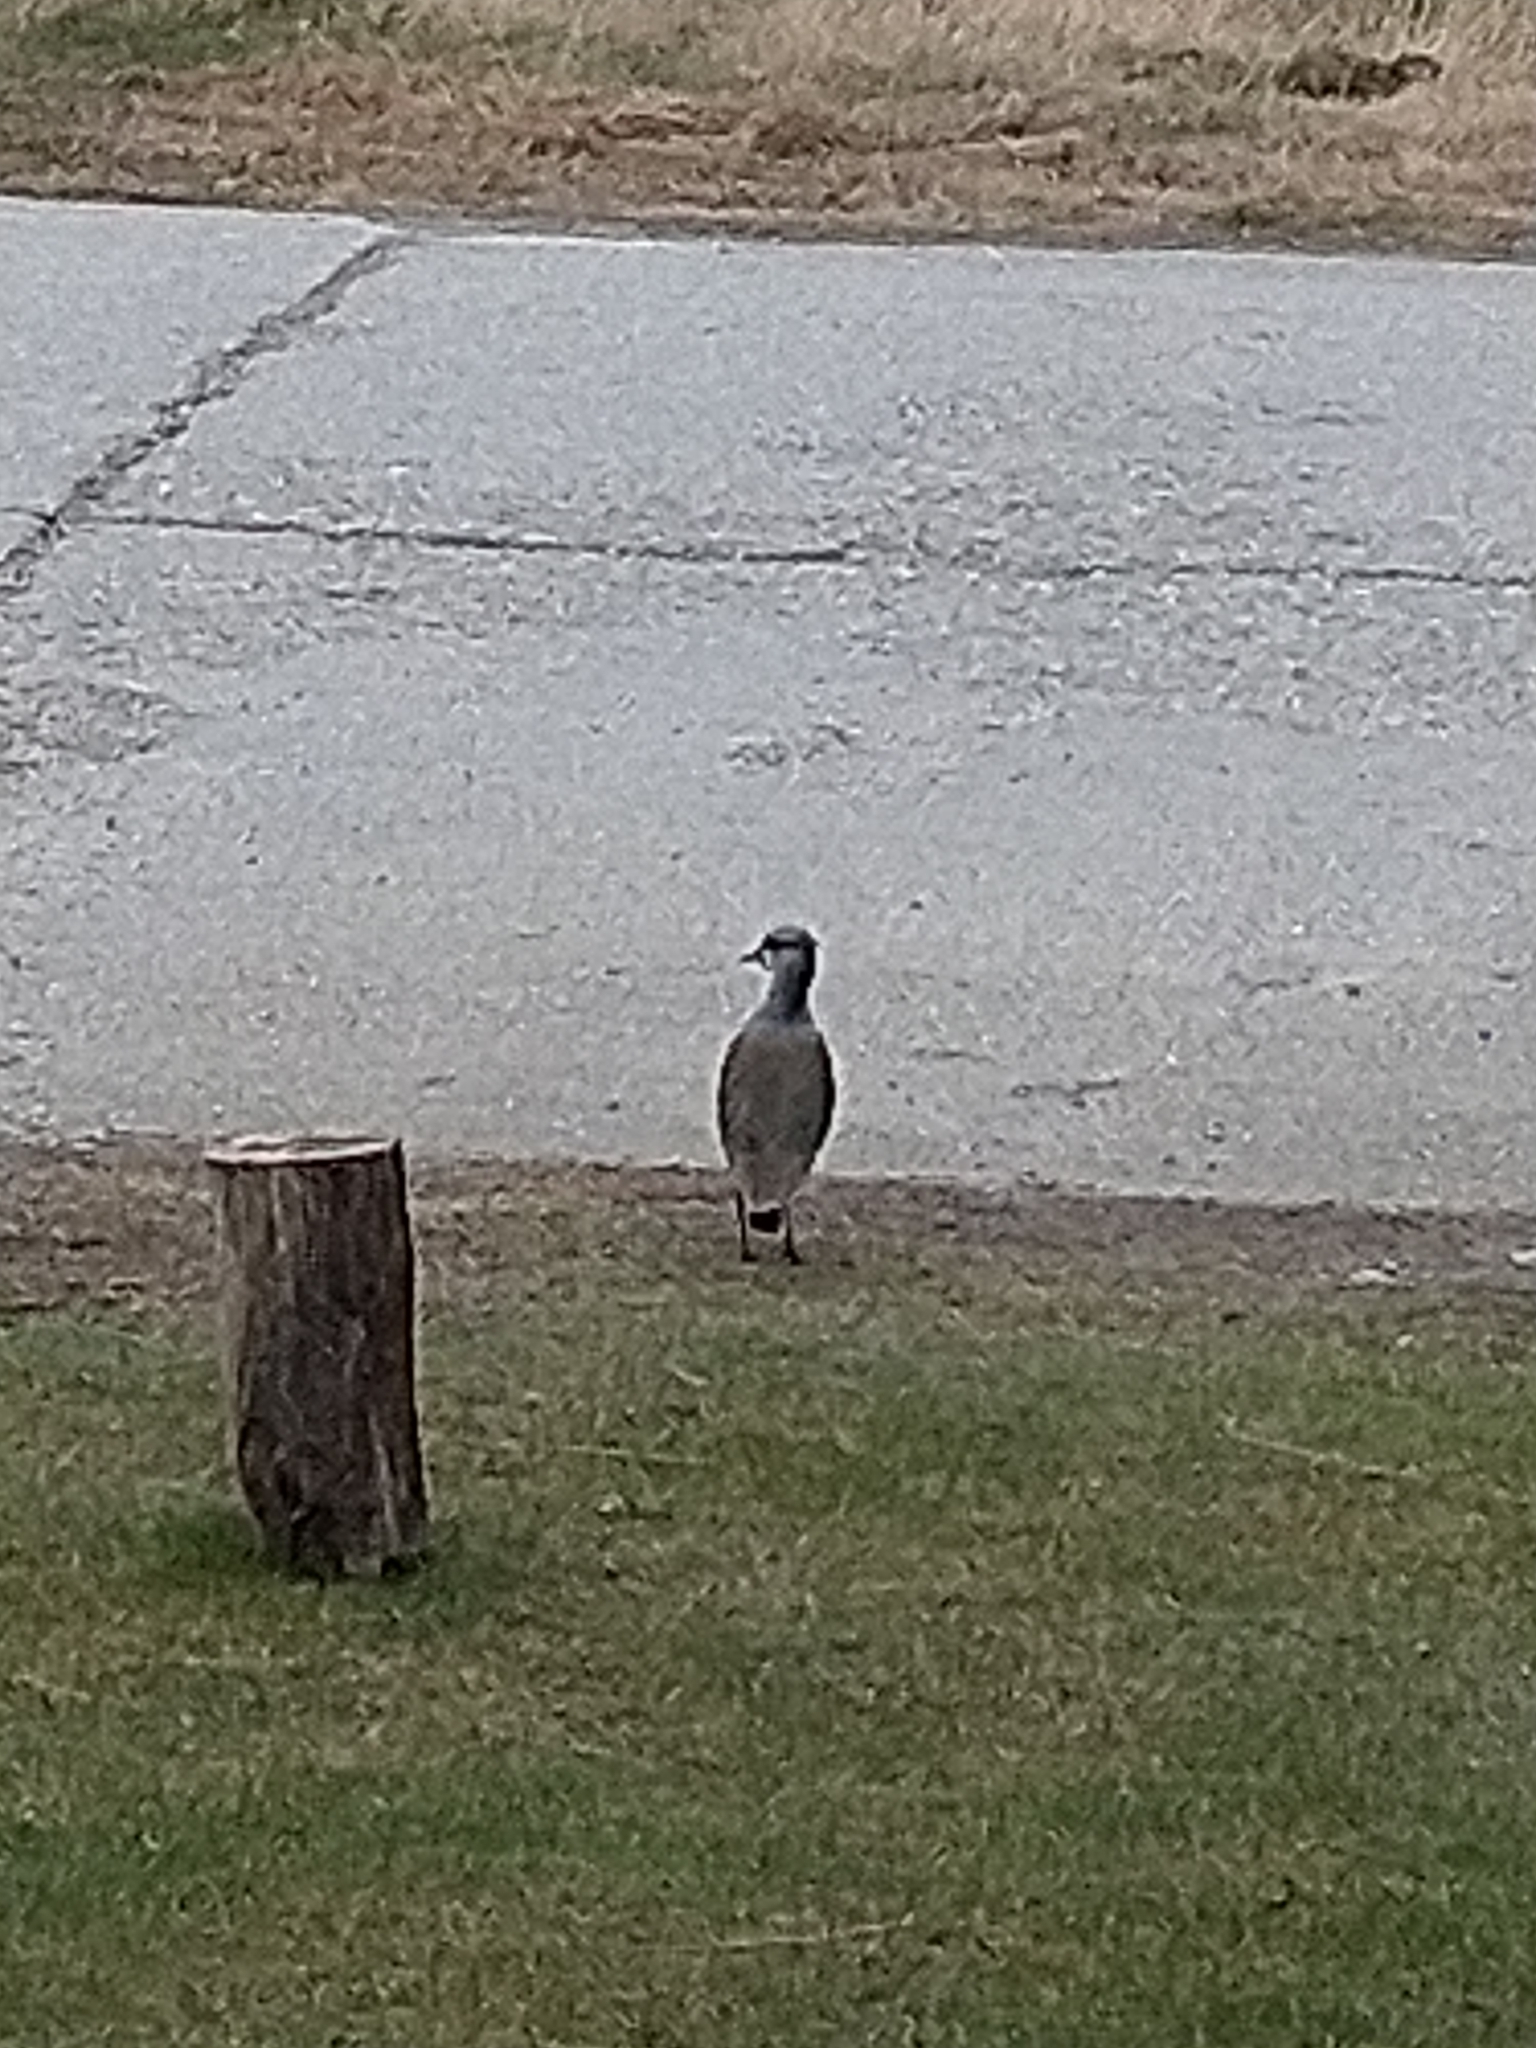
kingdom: Animalia
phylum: Chordata
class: Aves
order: Charadriiformes
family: Charadriidae
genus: Vanellus
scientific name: Vanellus chilensis
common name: Southern lapwing
